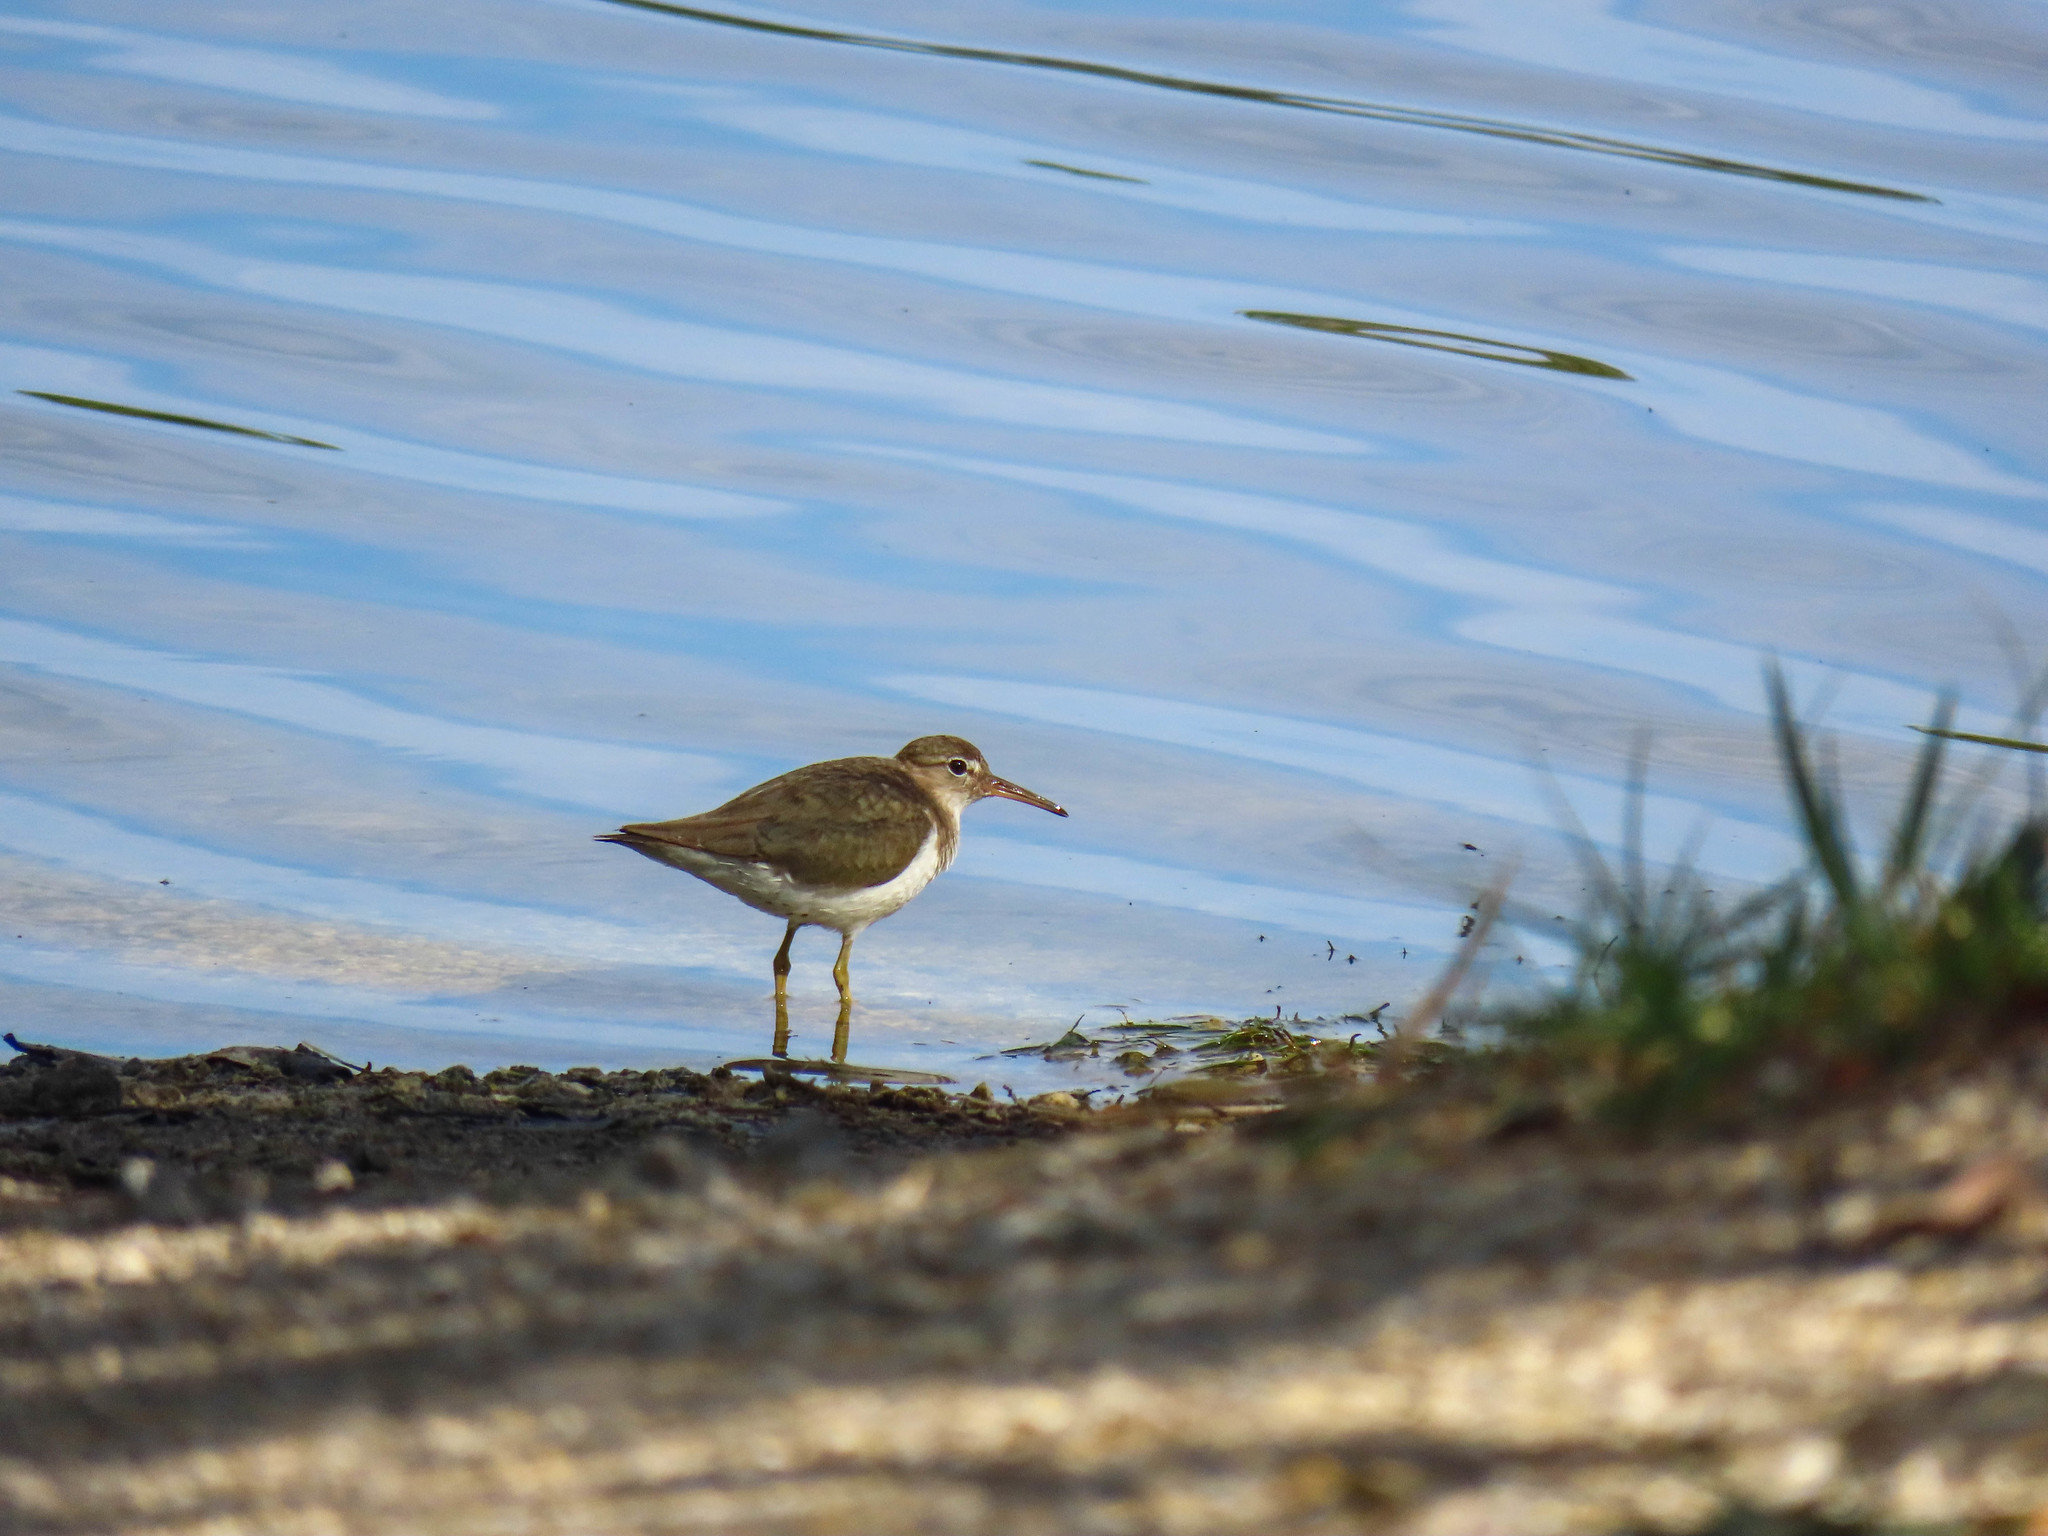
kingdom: Animalia
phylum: Chordata
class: Aves
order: Charadriiformes
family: Scolopacidae
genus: Actitis
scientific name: Actitis macularius
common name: Spotted sandpiper
